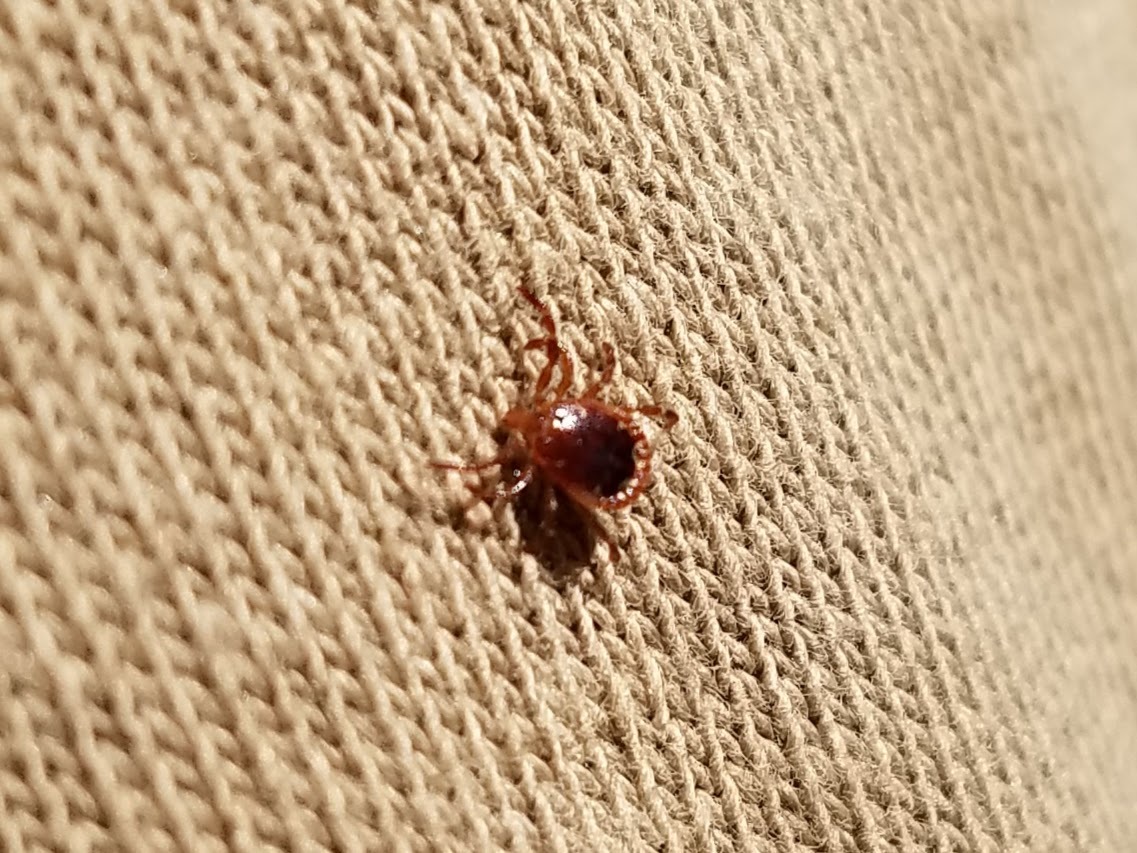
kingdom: Animalia
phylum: Arthropoda
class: Arachnida
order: Ixodida
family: Ixodidae
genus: Amblyomma
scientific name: Amblyomma americanum
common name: Lone star tick
